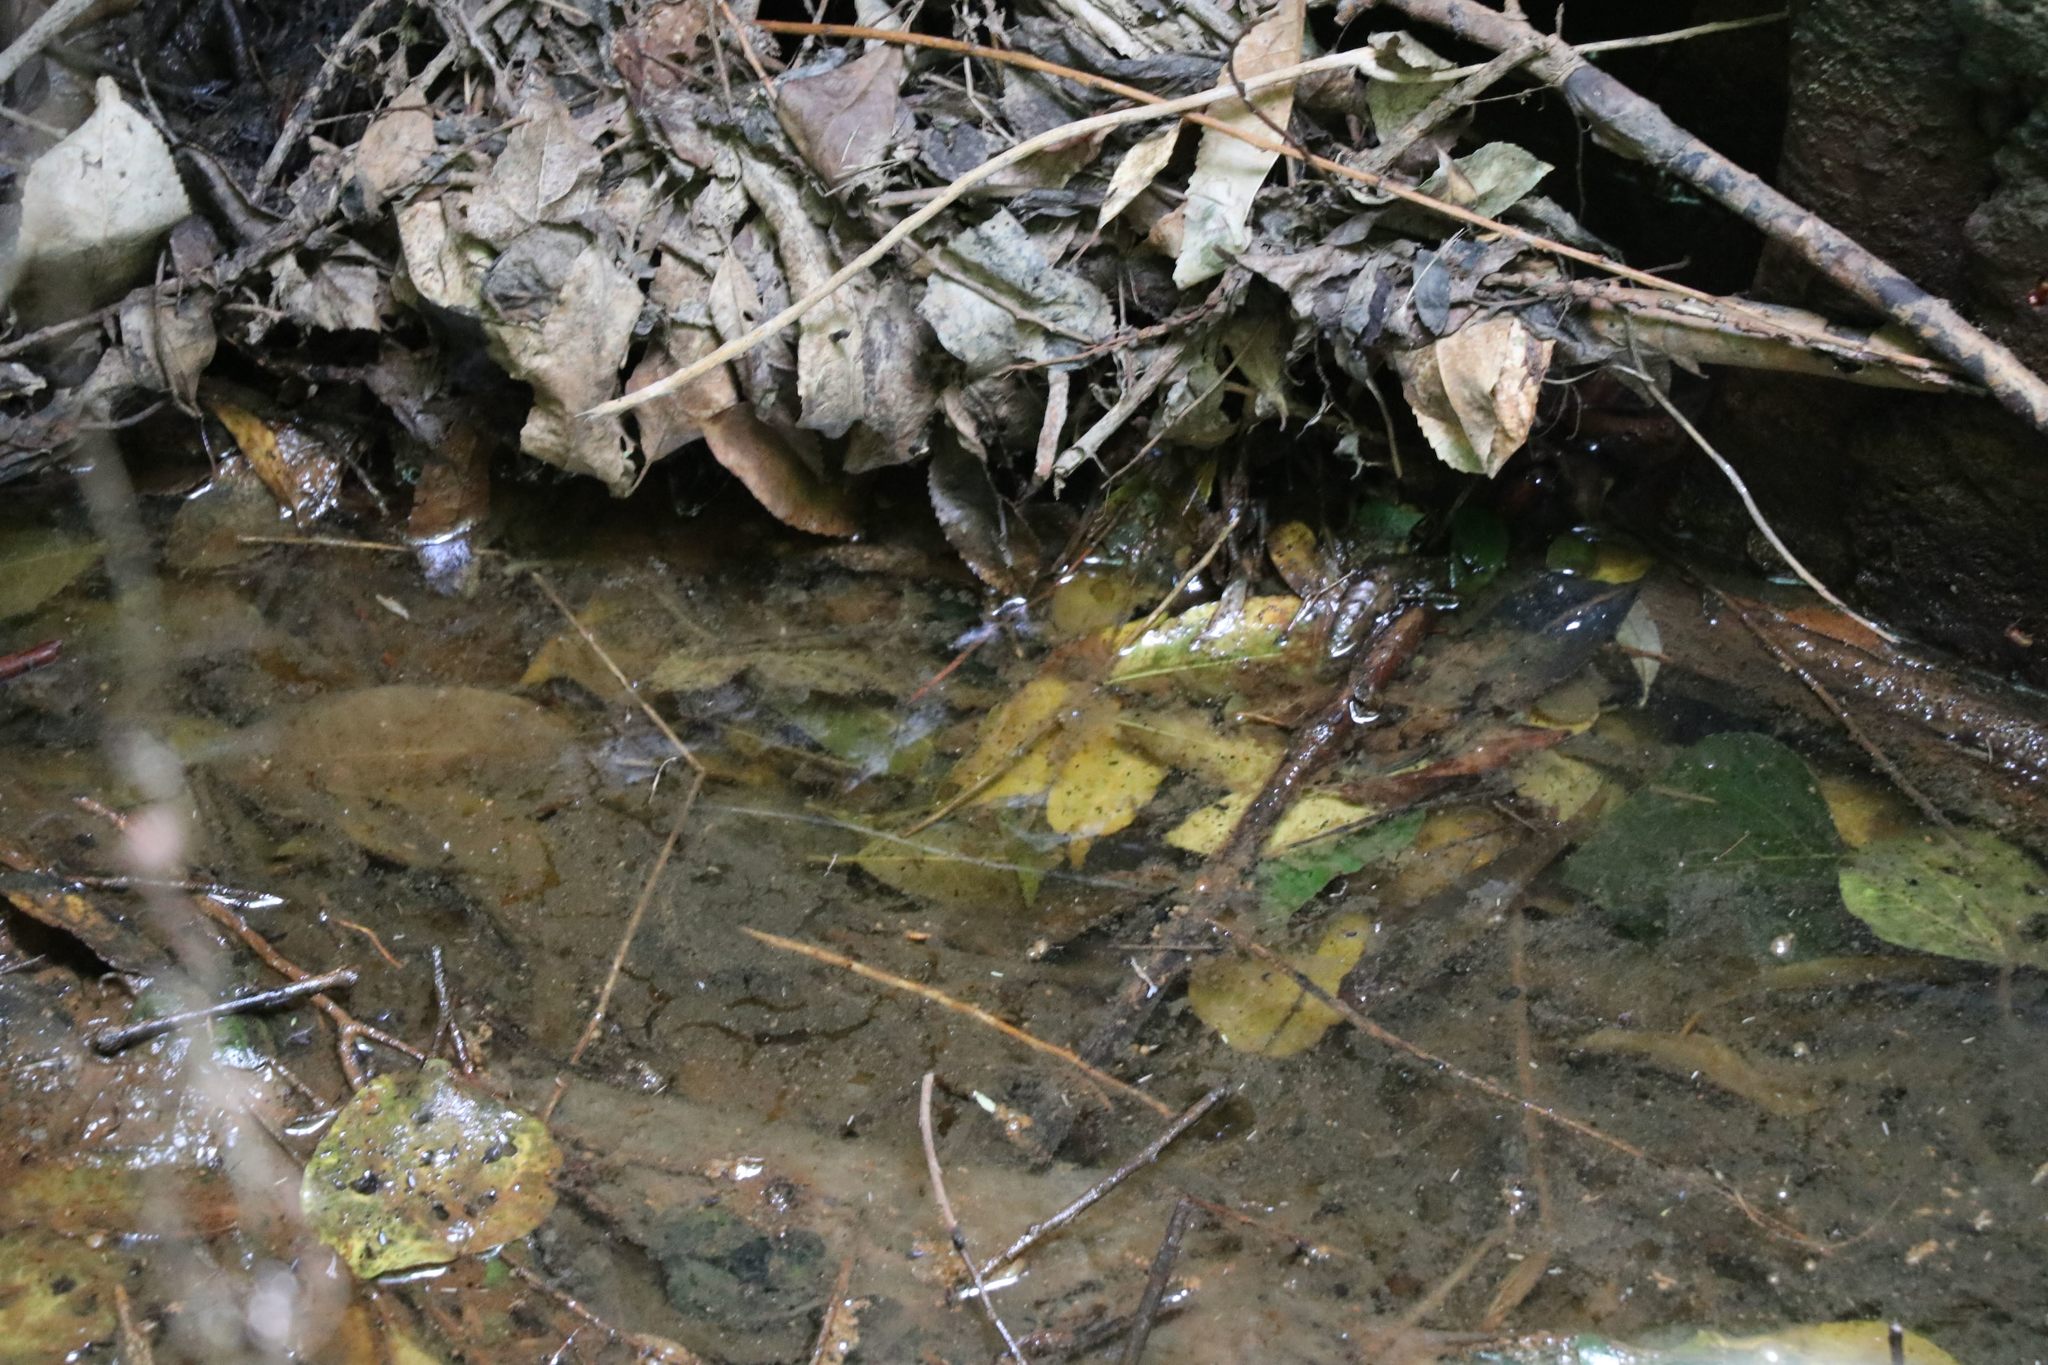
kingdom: Animalia
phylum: Chordata
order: Osmeriformes
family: Galaxiidae
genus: Galaxias
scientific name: Galaxias fasciatus
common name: Banded kokopu
